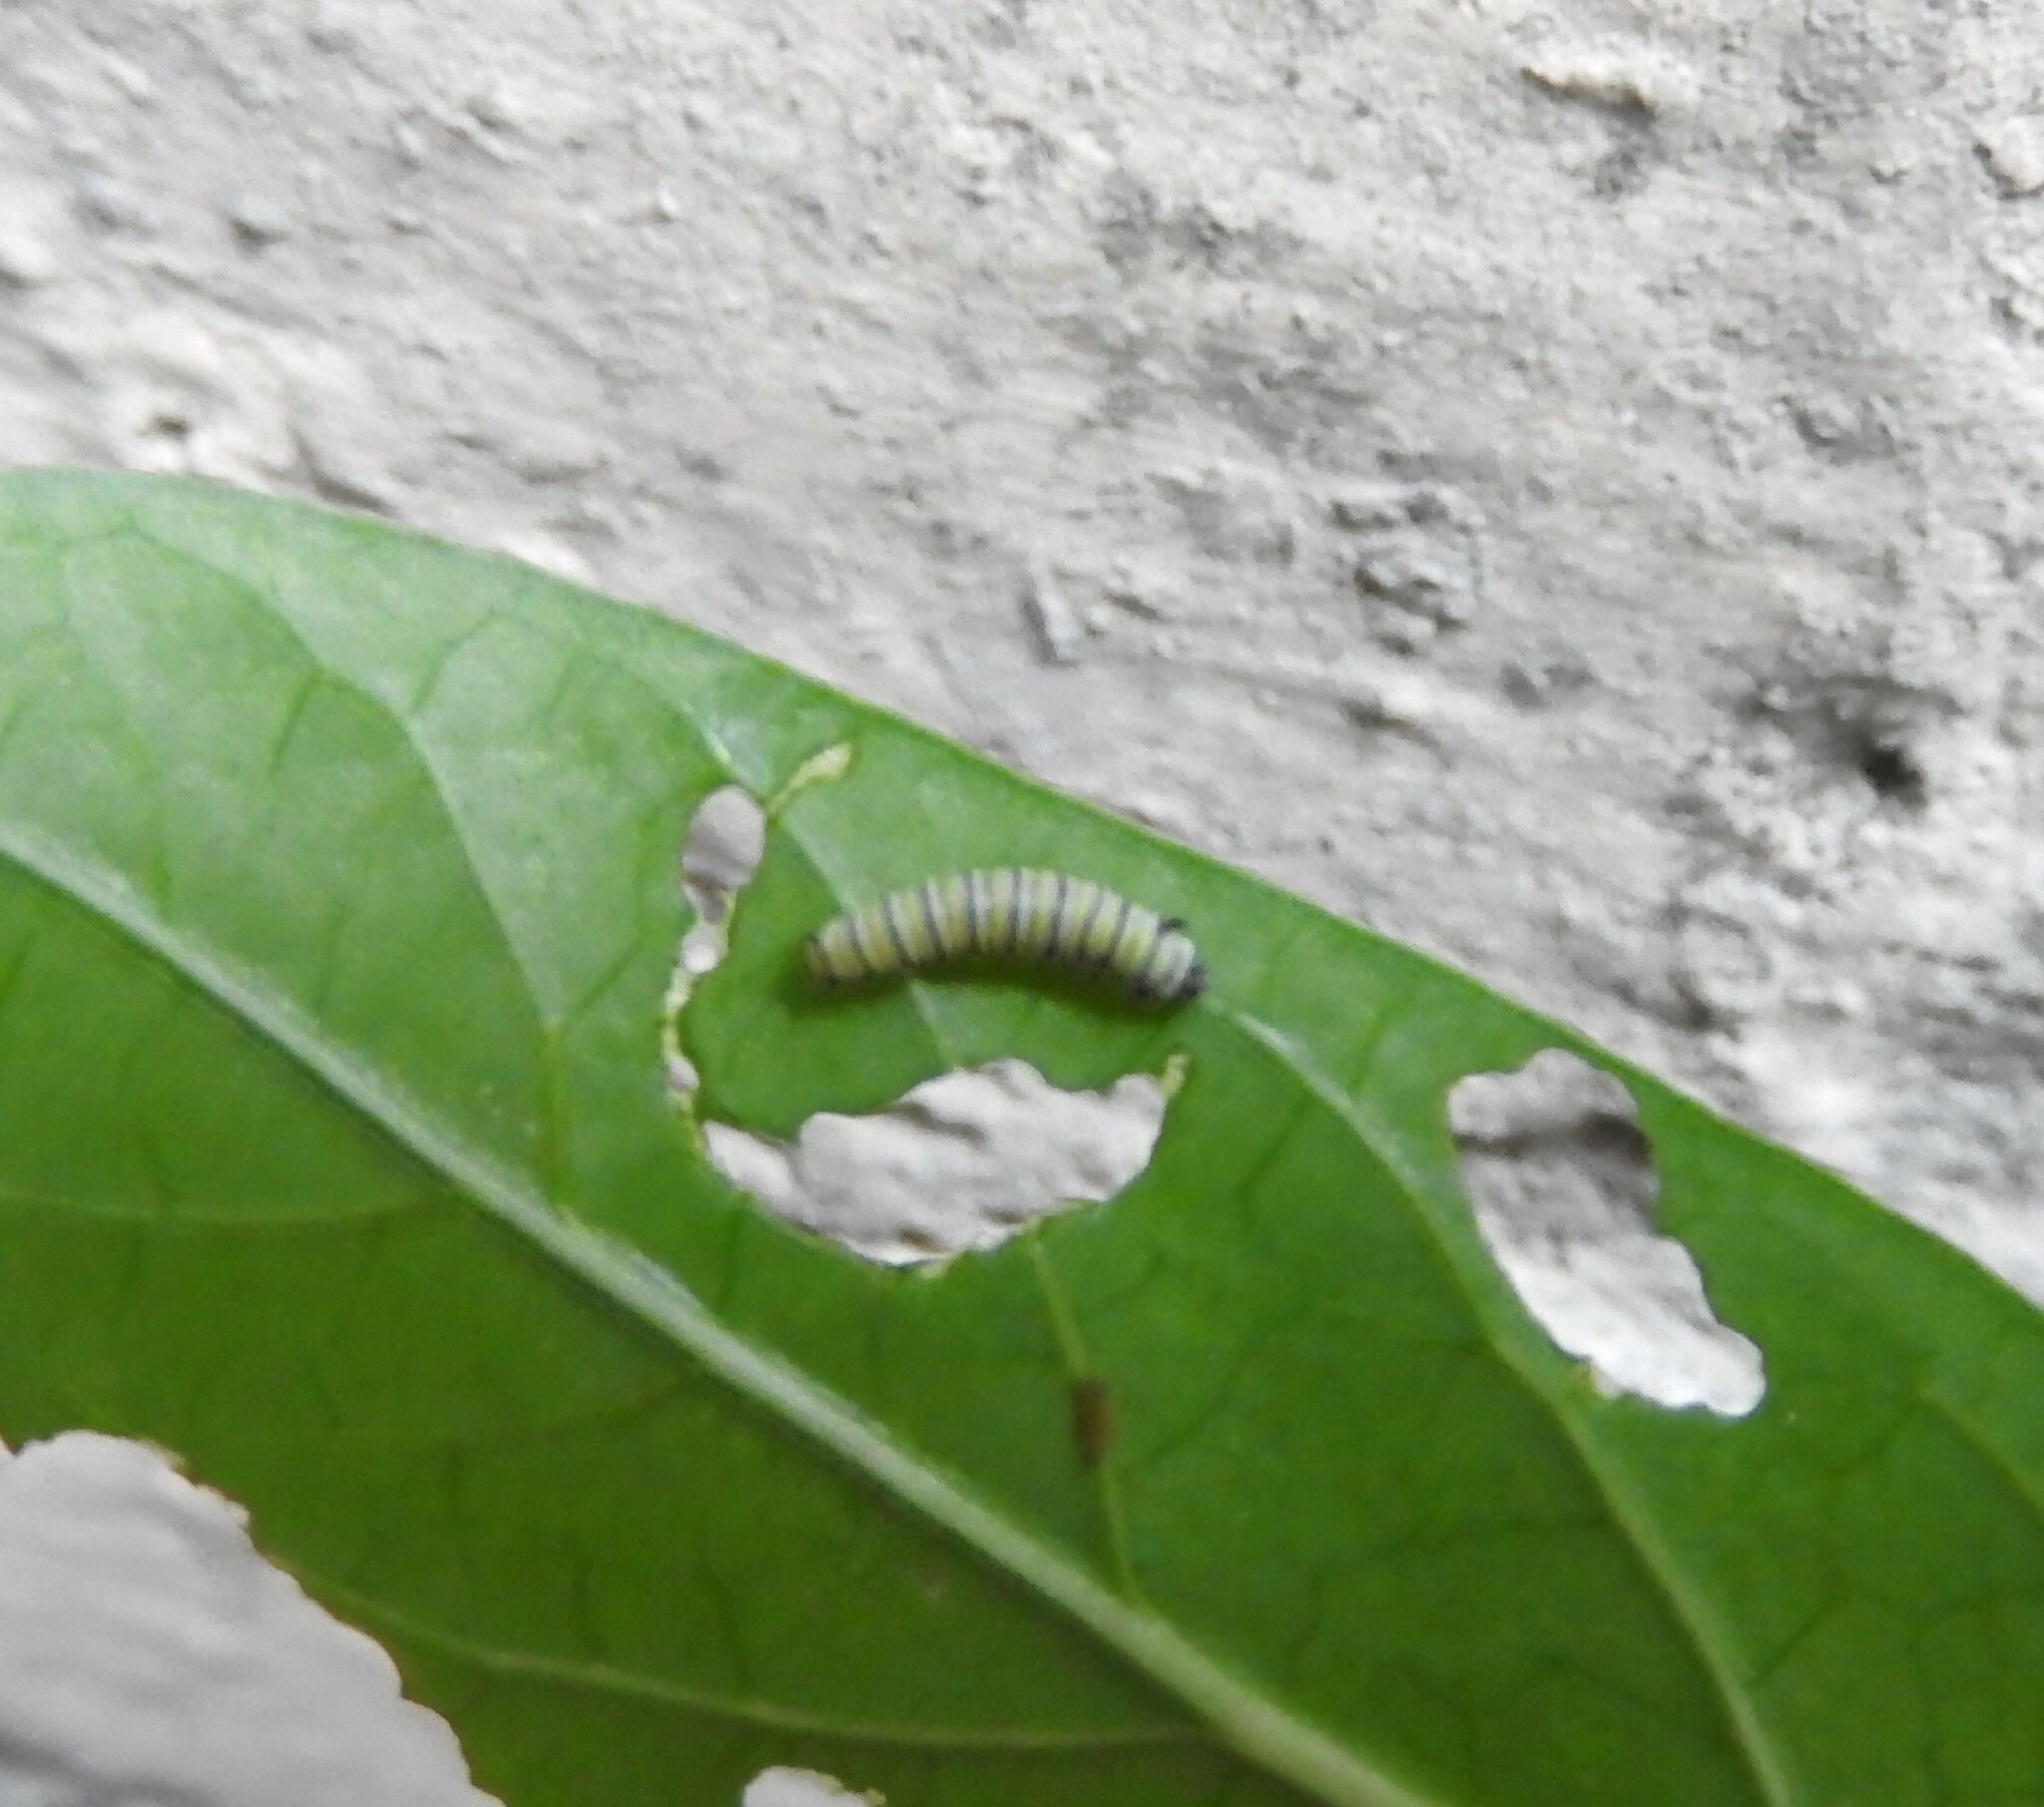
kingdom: Animalia
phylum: Arthropoda
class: Insecta
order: Lepidoptera
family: Nymphalidae
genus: Danaus
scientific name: Danaus plexippus
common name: Monarch
